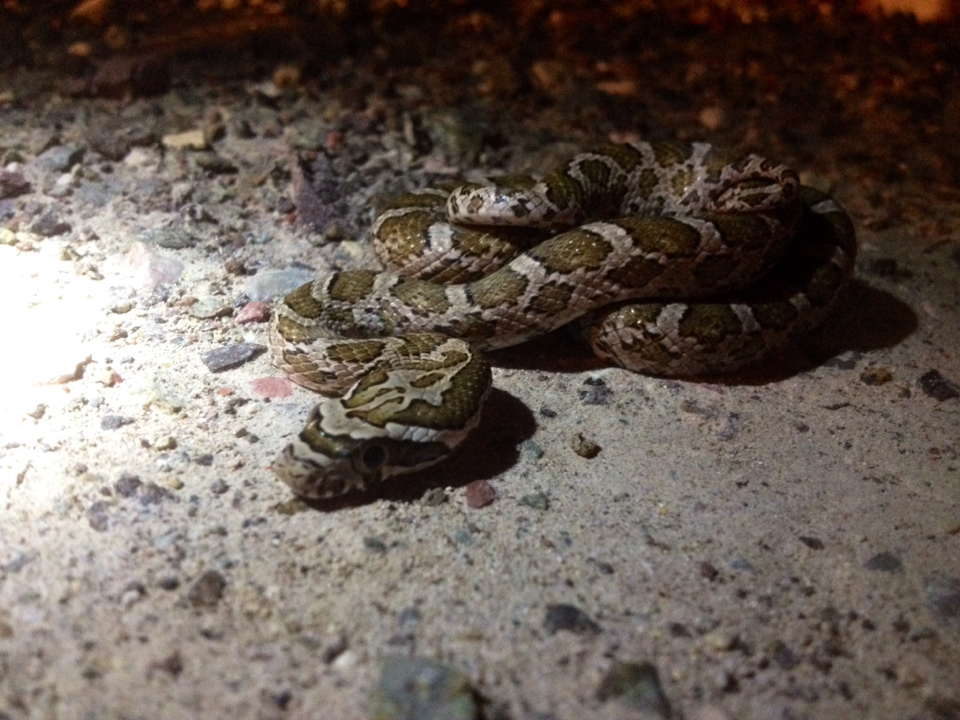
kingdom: Animalia
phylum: Chordata
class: Squamata
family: Colubridae
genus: Pantherophis
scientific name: Pantherophis emoryi
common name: Great plains rat snake
